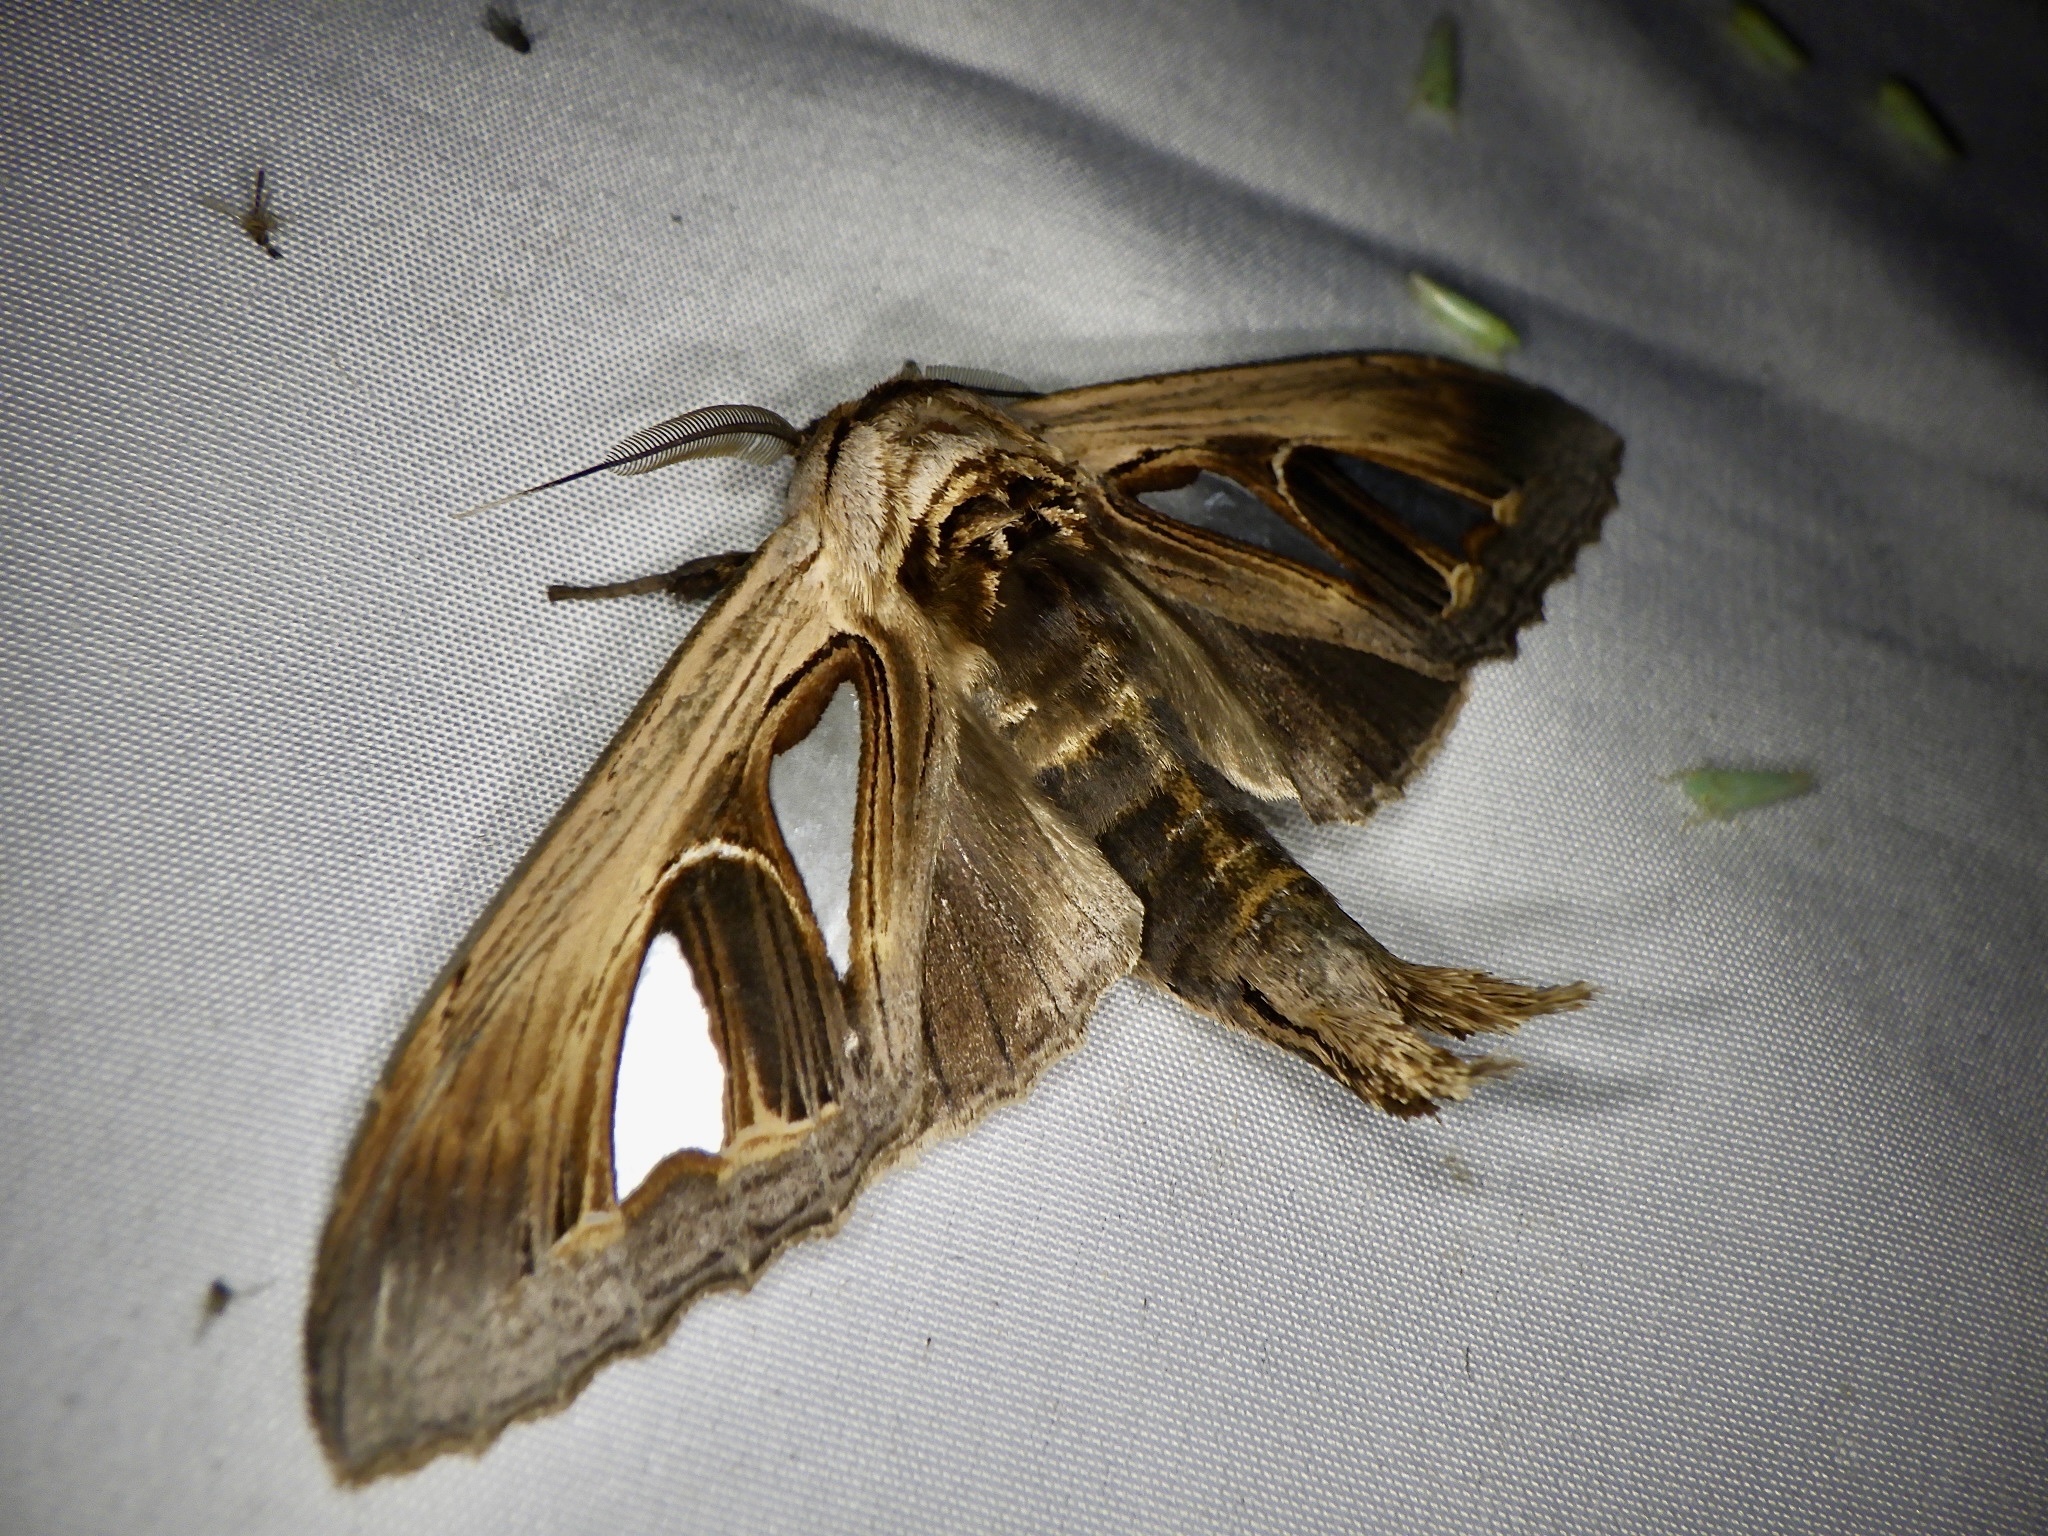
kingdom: Animalia
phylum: Arthropoda
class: Insecta
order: Lepidoptera
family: Notodontidae
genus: Tarsolepis
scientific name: Tarsolepis japonica
